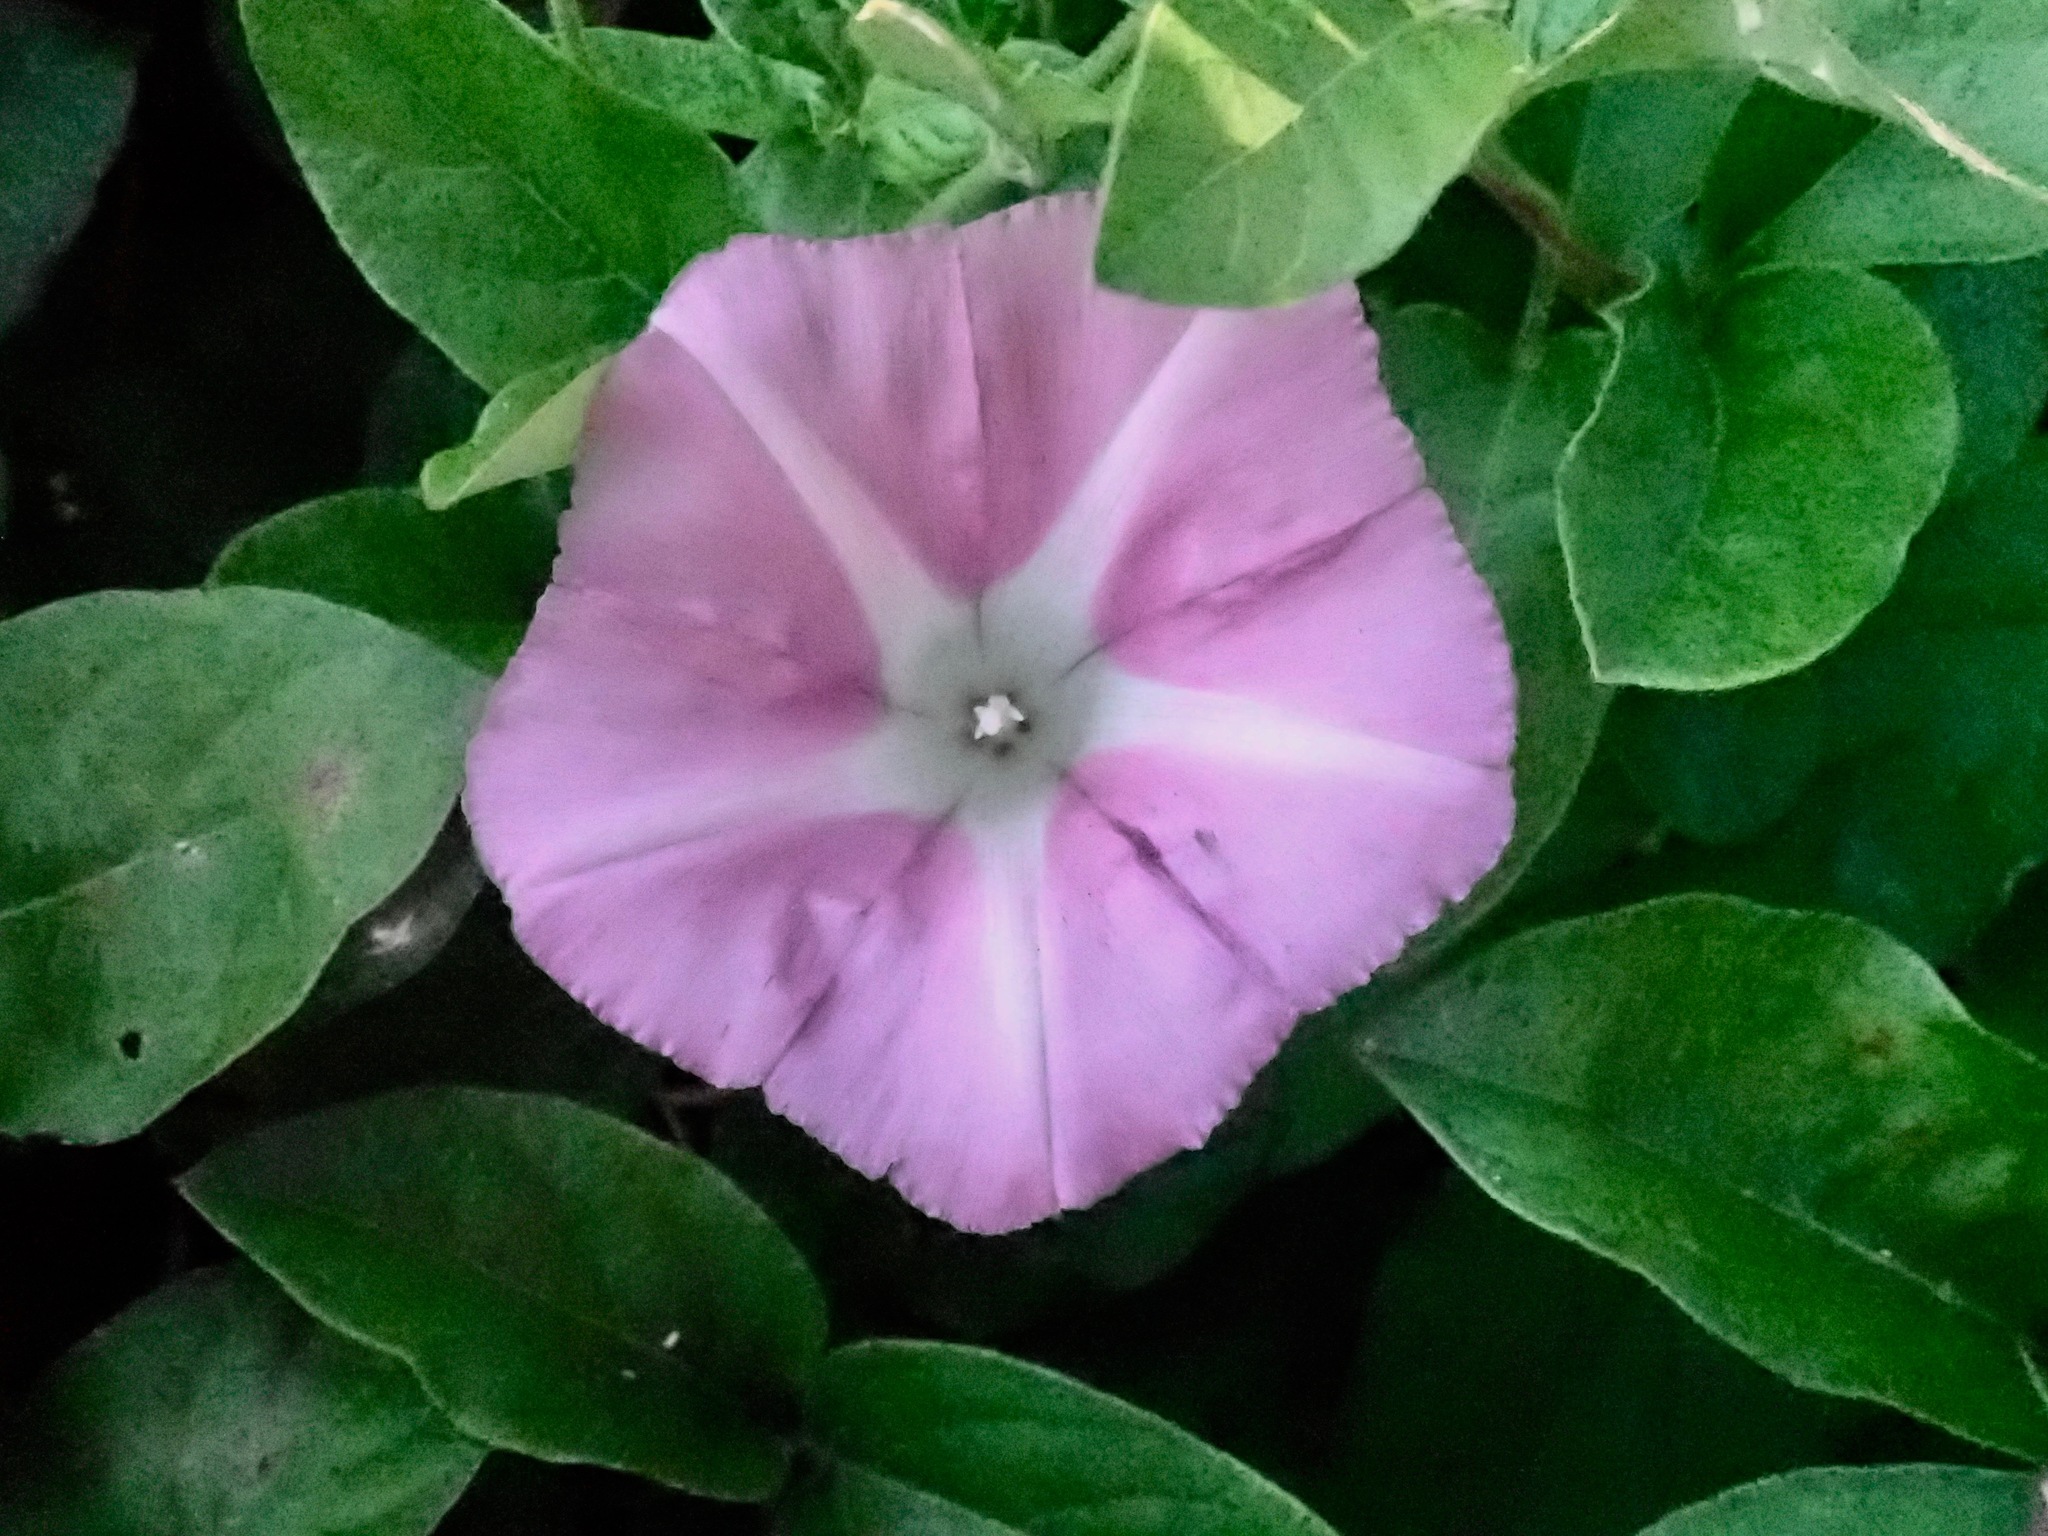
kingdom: Plantae
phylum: Tracheophyta
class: Magnoliopsida
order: Solanales
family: Convolvulaceae
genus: Calystegia
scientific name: Calystegia sepium
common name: Hedge bindweed
